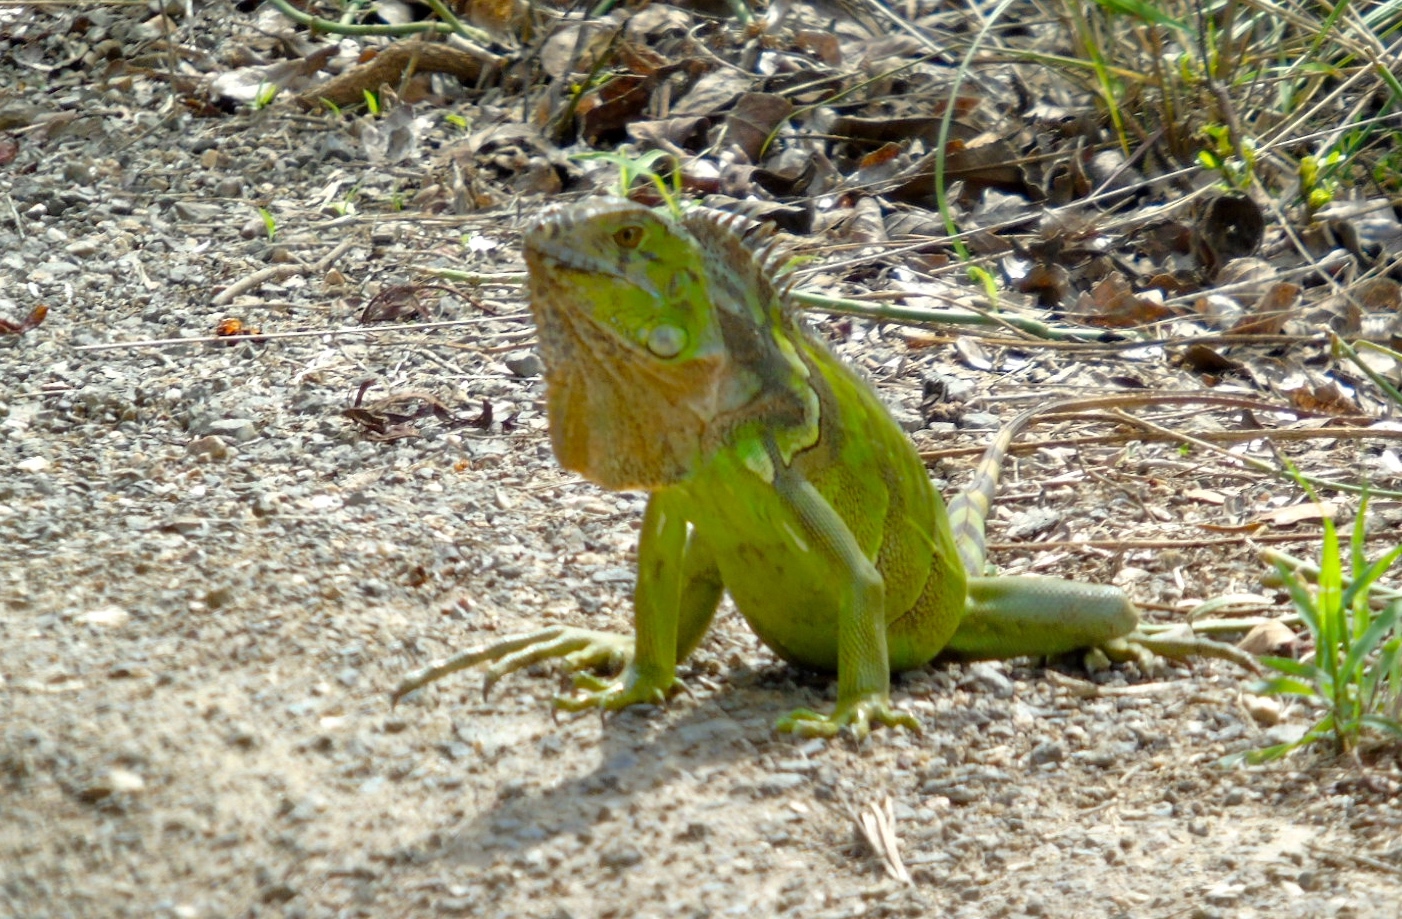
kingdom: Animalia
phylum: Chordata
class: Squamata
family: Iguanidae
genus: Iguana
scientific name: Iguana iguana
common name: Green iguana
